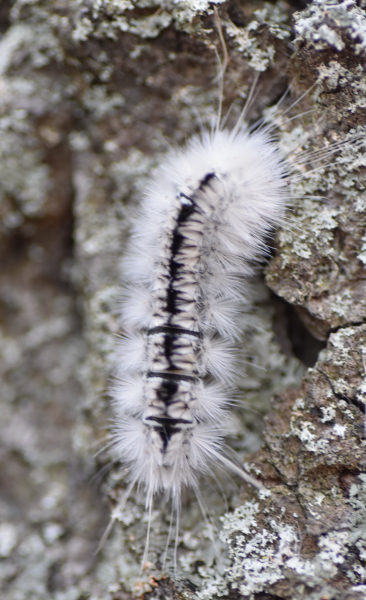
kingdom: Animalia
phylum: Arthropoda
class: Insecta
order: Lepidoptera
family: Erebidae
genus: Lophocampa
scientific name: Lophocampa caryae
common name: Hickory tussock moth
